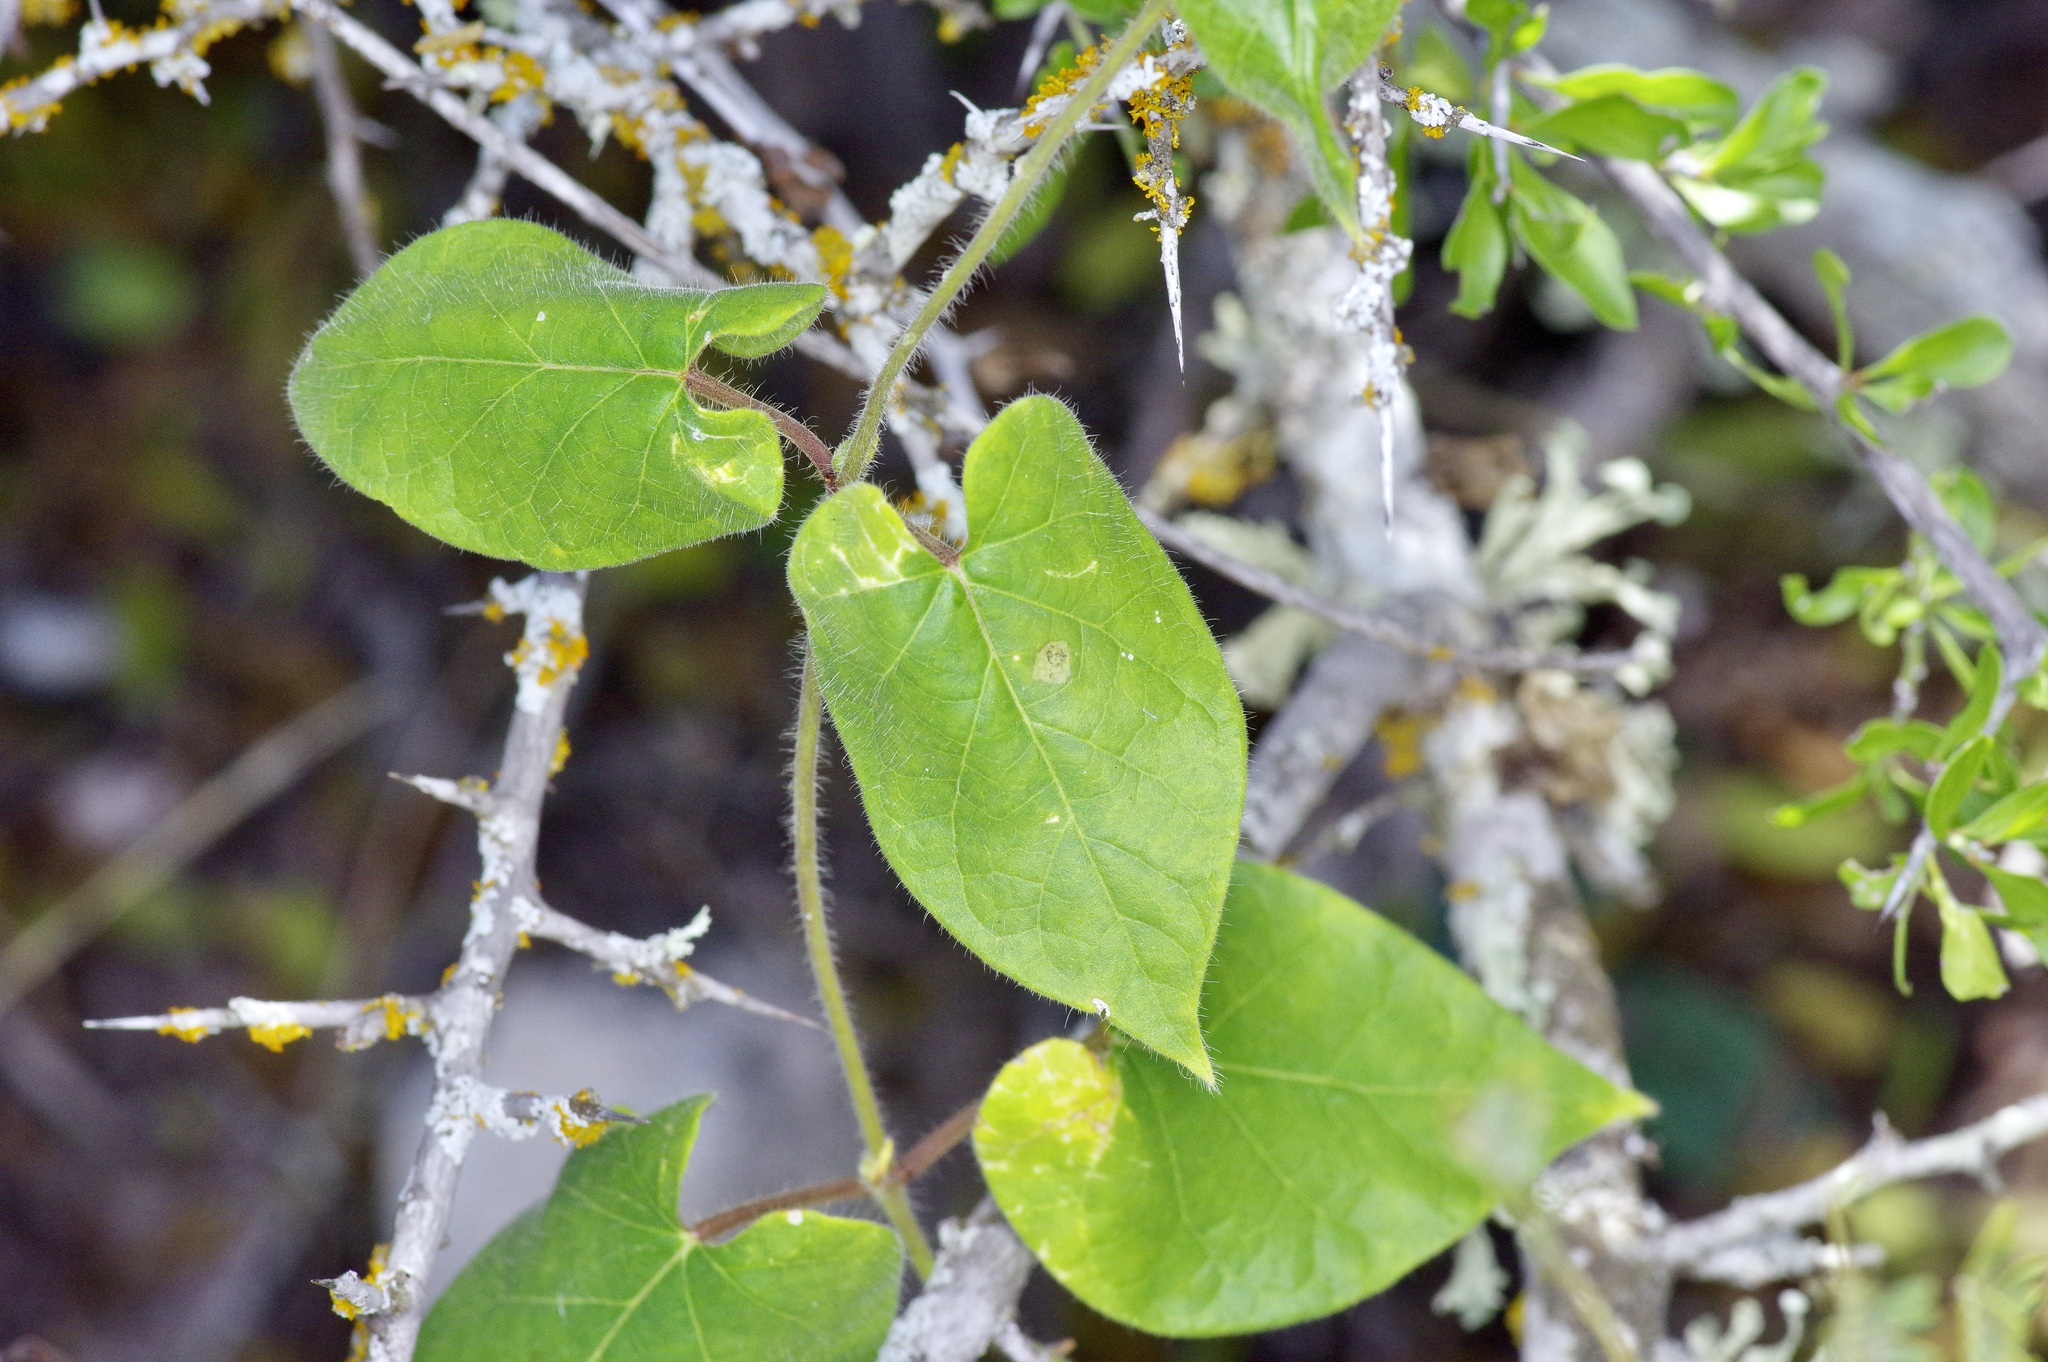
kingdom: Plantae
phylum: Tracheophyta
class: Magnoliopsida
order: Gentianales
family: Apocynaceae
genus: Dictyanthus
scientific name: Dictyanthus reticulatus
